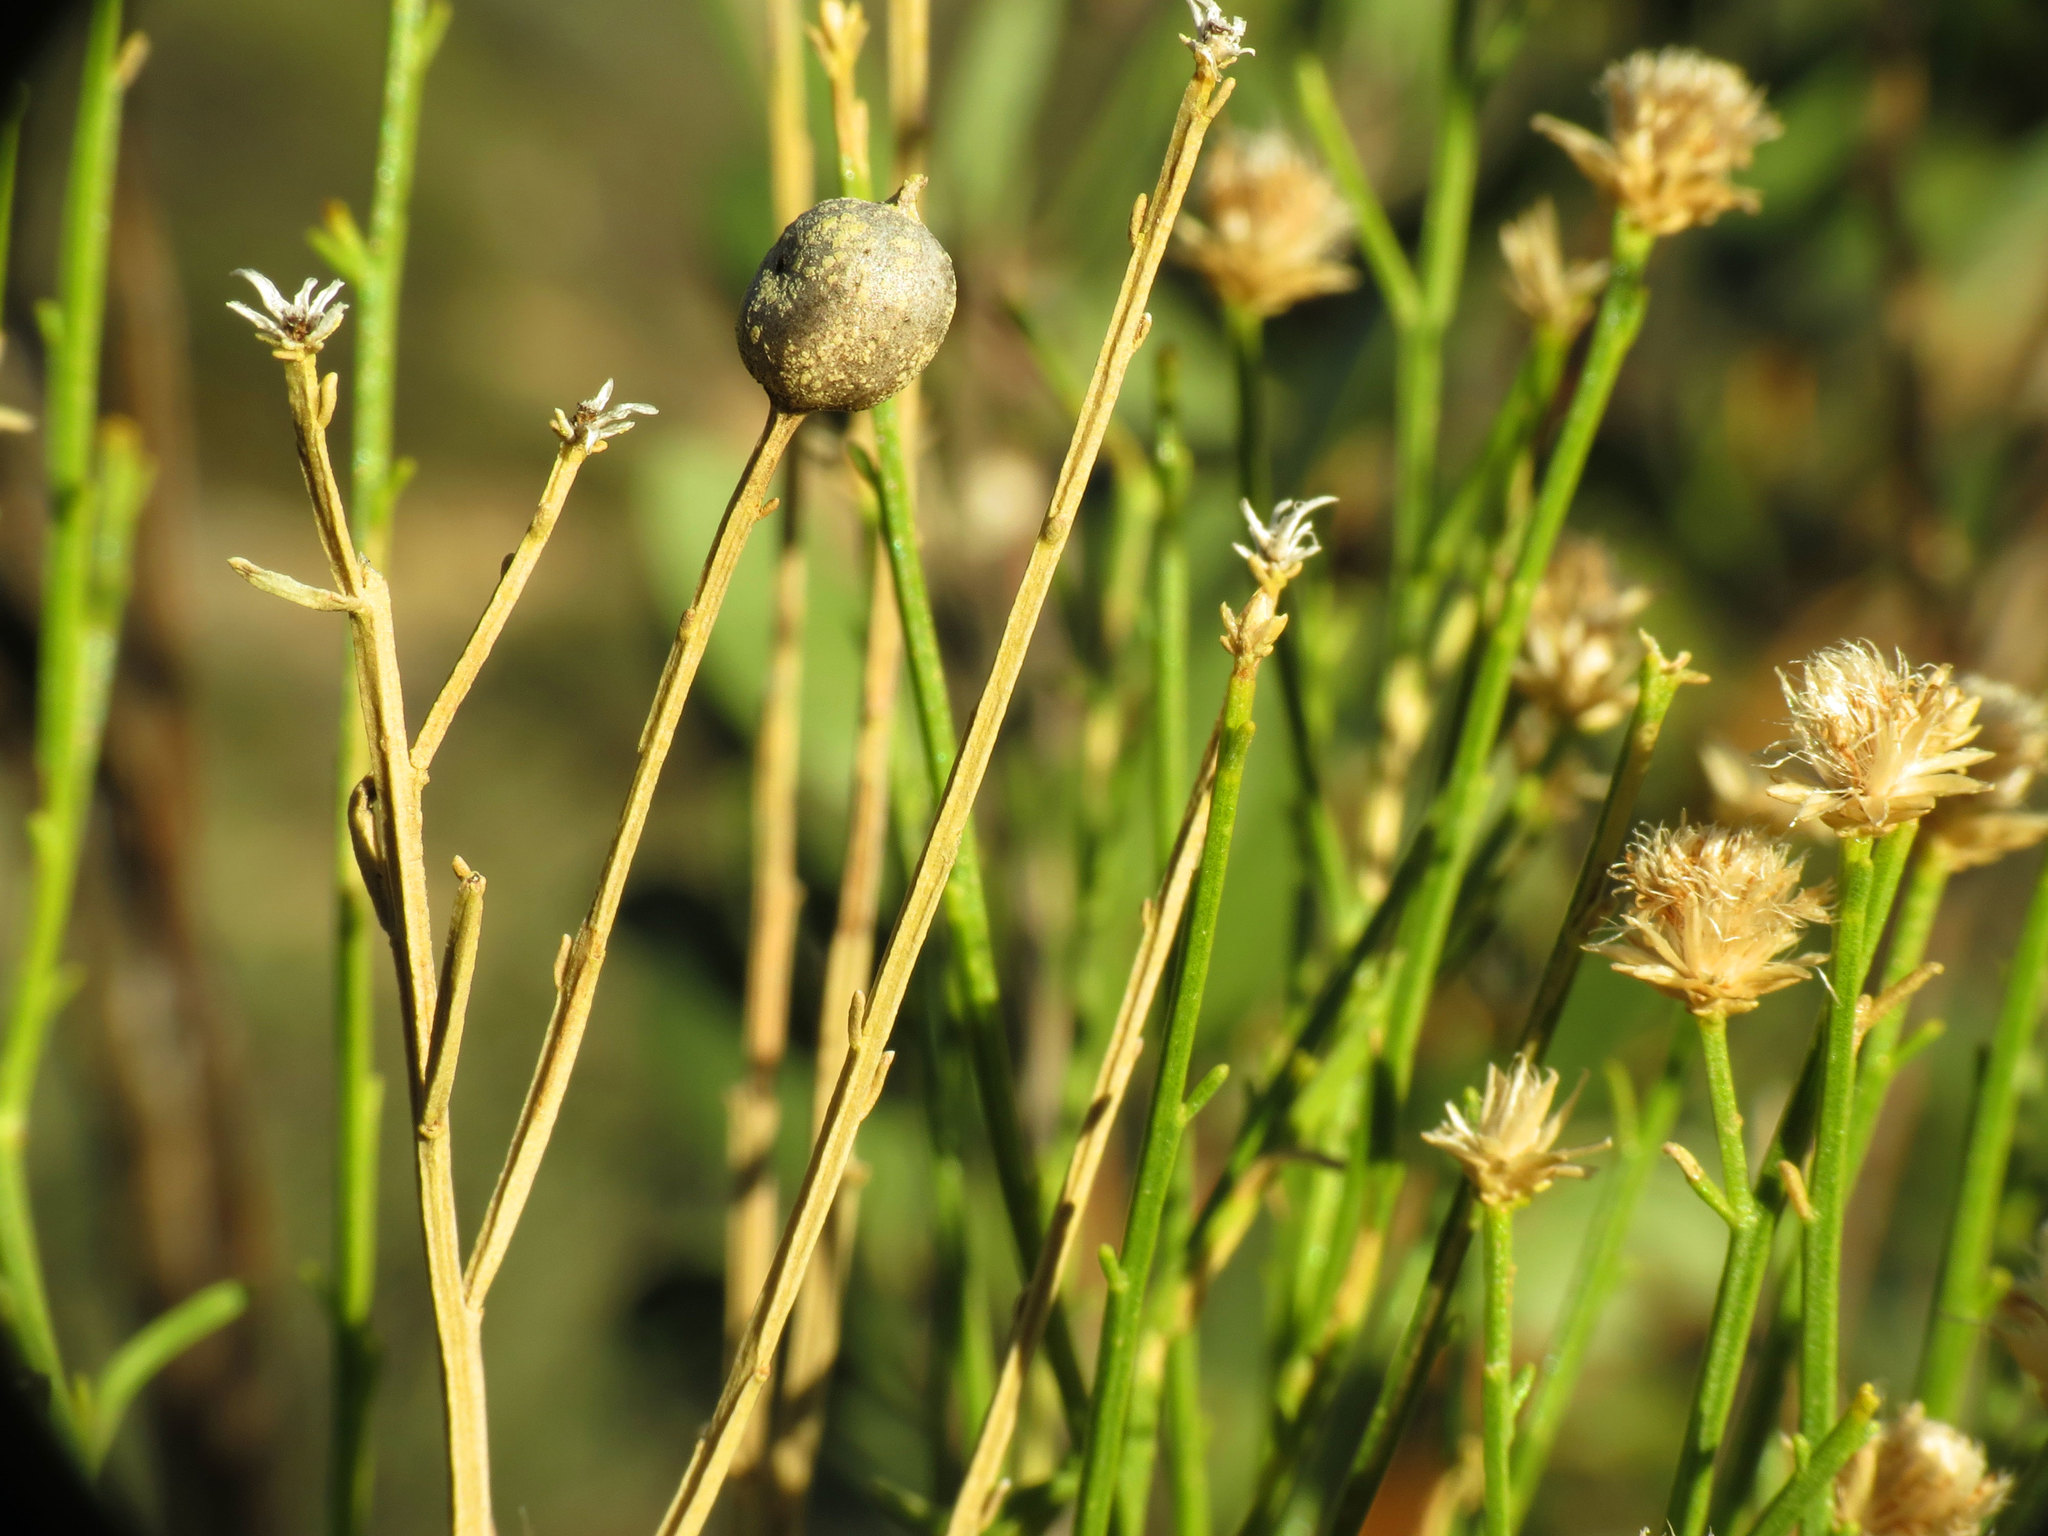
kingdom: Animalia
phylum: Arthropoda
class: Insecta
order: Diptera
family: Tephritidae
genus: Aciurina
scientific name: Aciurina thoracica
